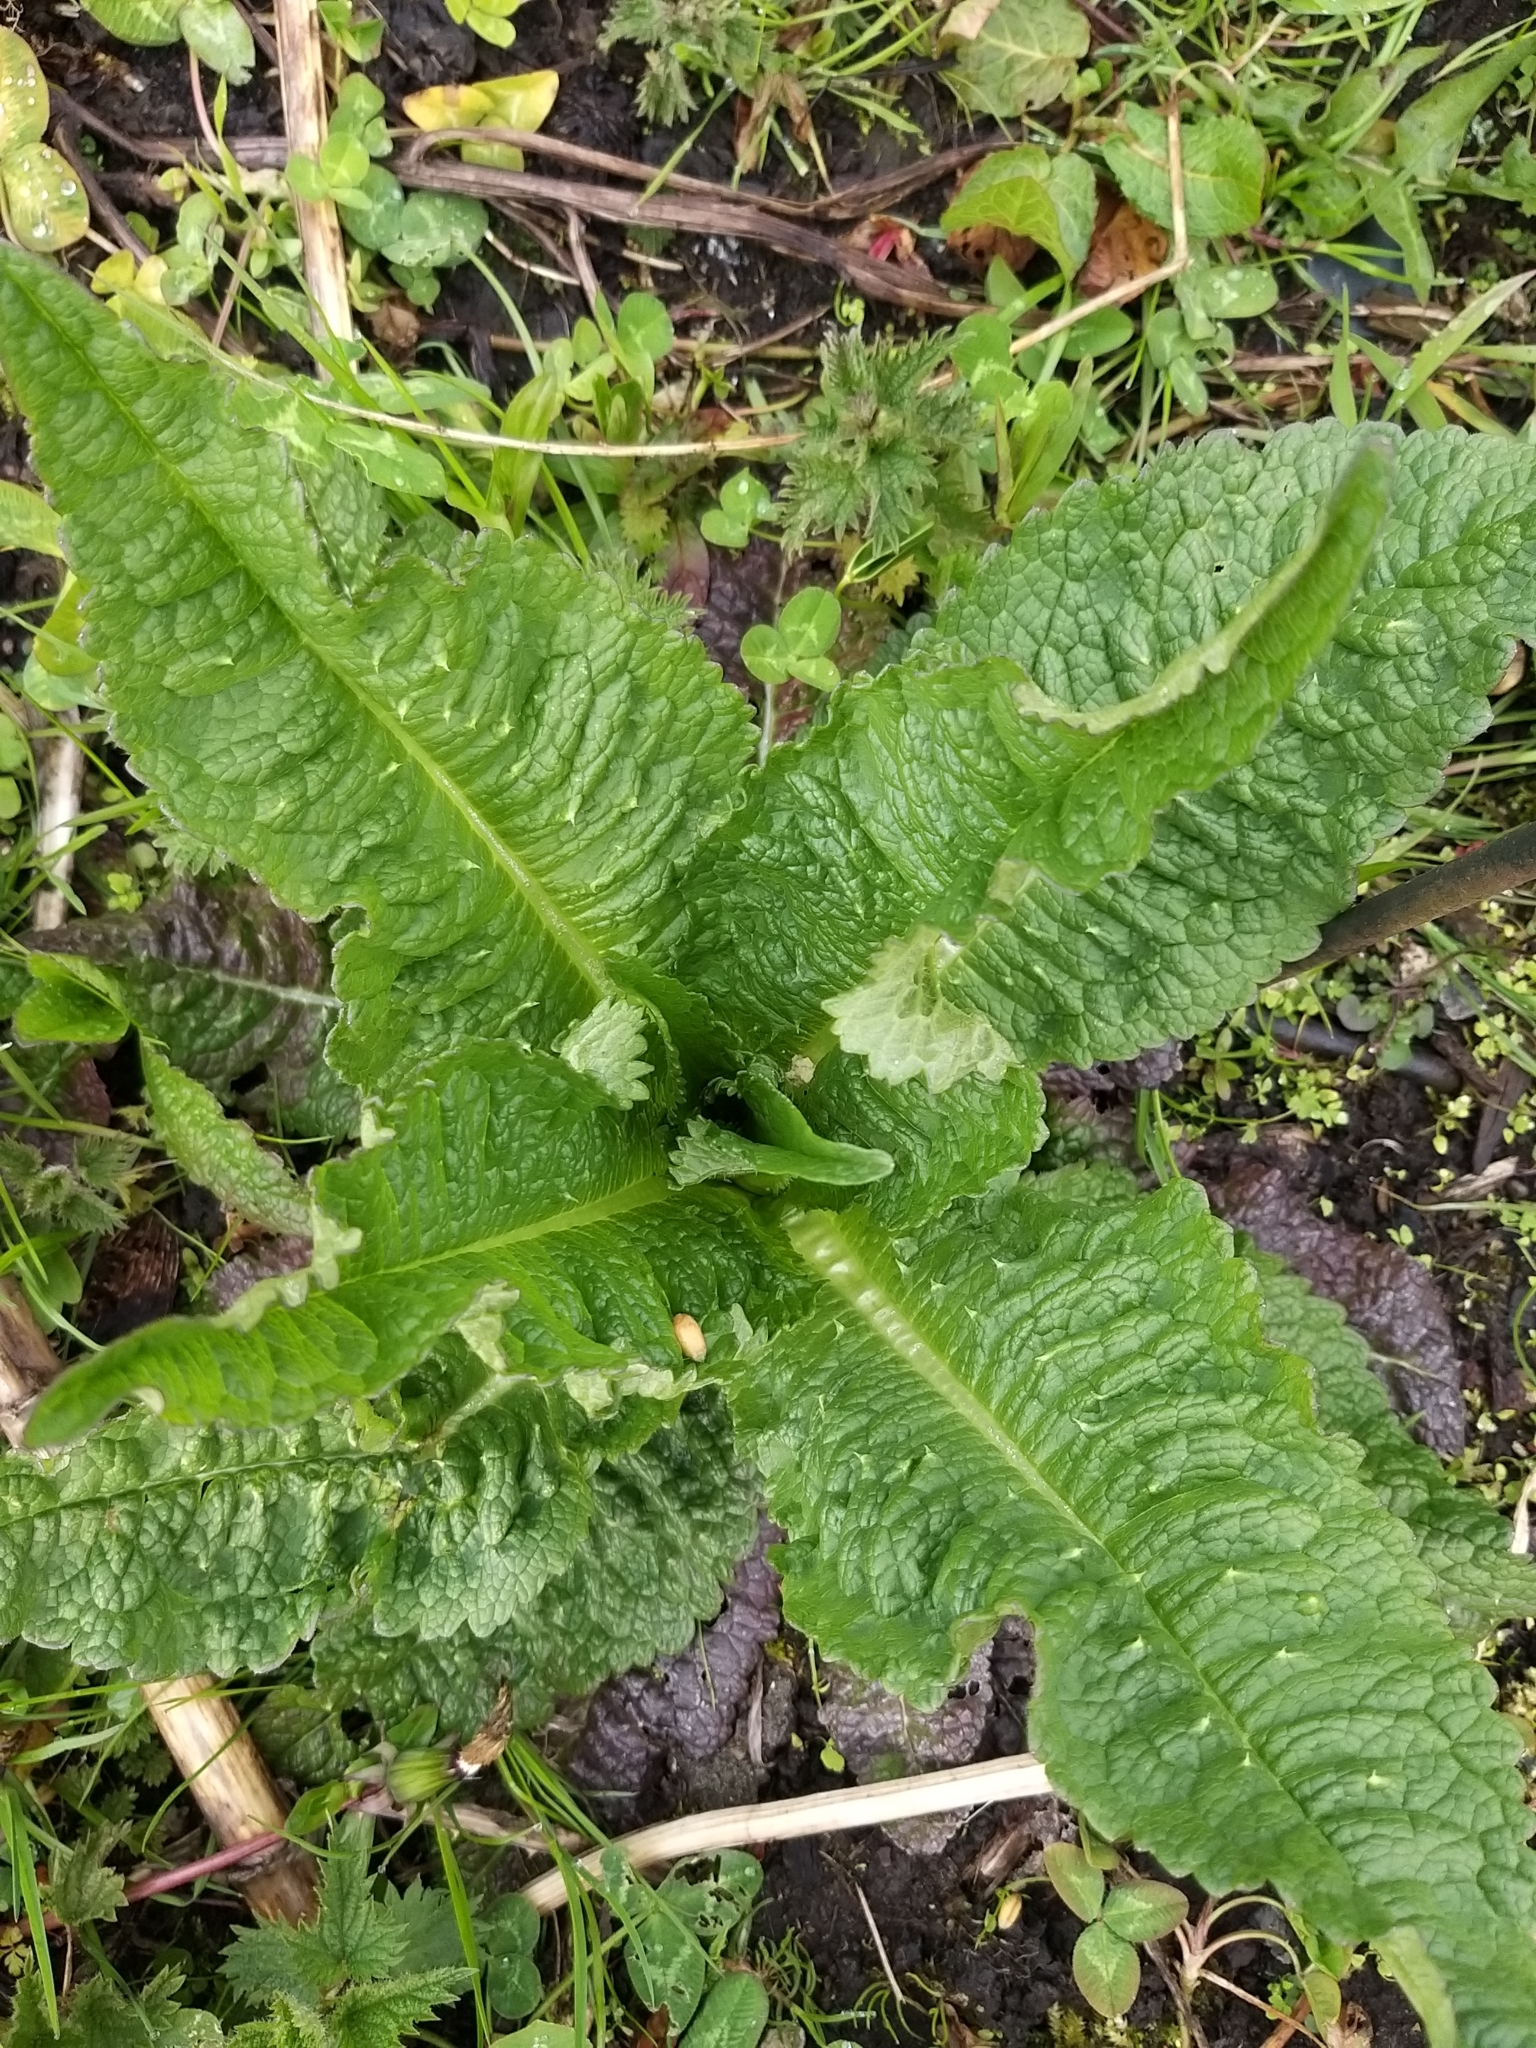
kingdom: Plantae
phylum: Tracheophyta
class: Magnoliopsida
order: Dipsacales
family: Caprifoliaceae
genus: Dipsacus
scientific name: Dipsacus fullonum
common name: Teasel
